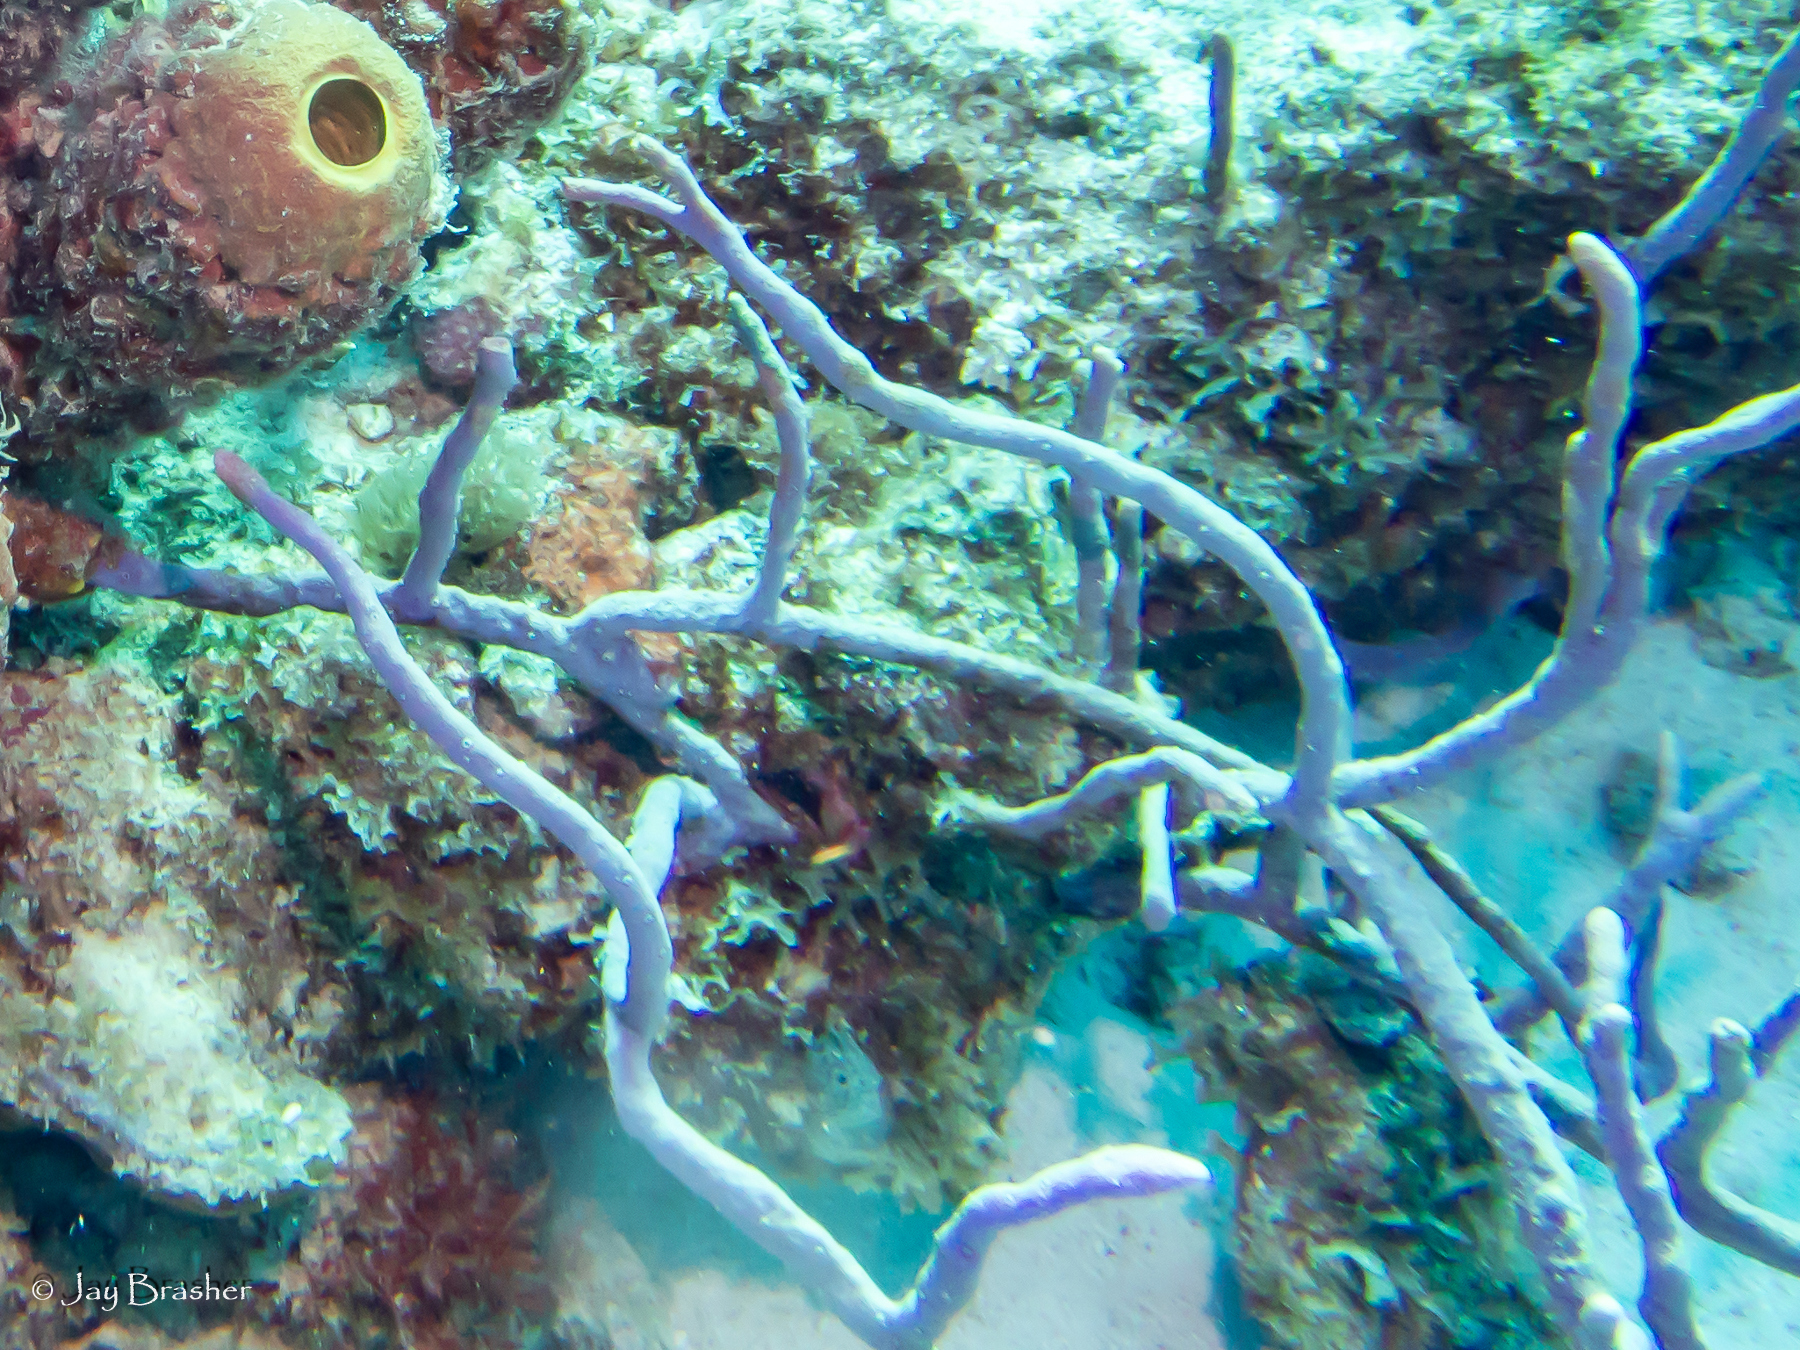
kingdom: Animalia
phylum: Porifera
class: Demospongiae
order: Verongiida
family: Aplysinidae
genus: Aplysina
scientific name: Aplysina cauliformis
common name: Branching candle sponge
